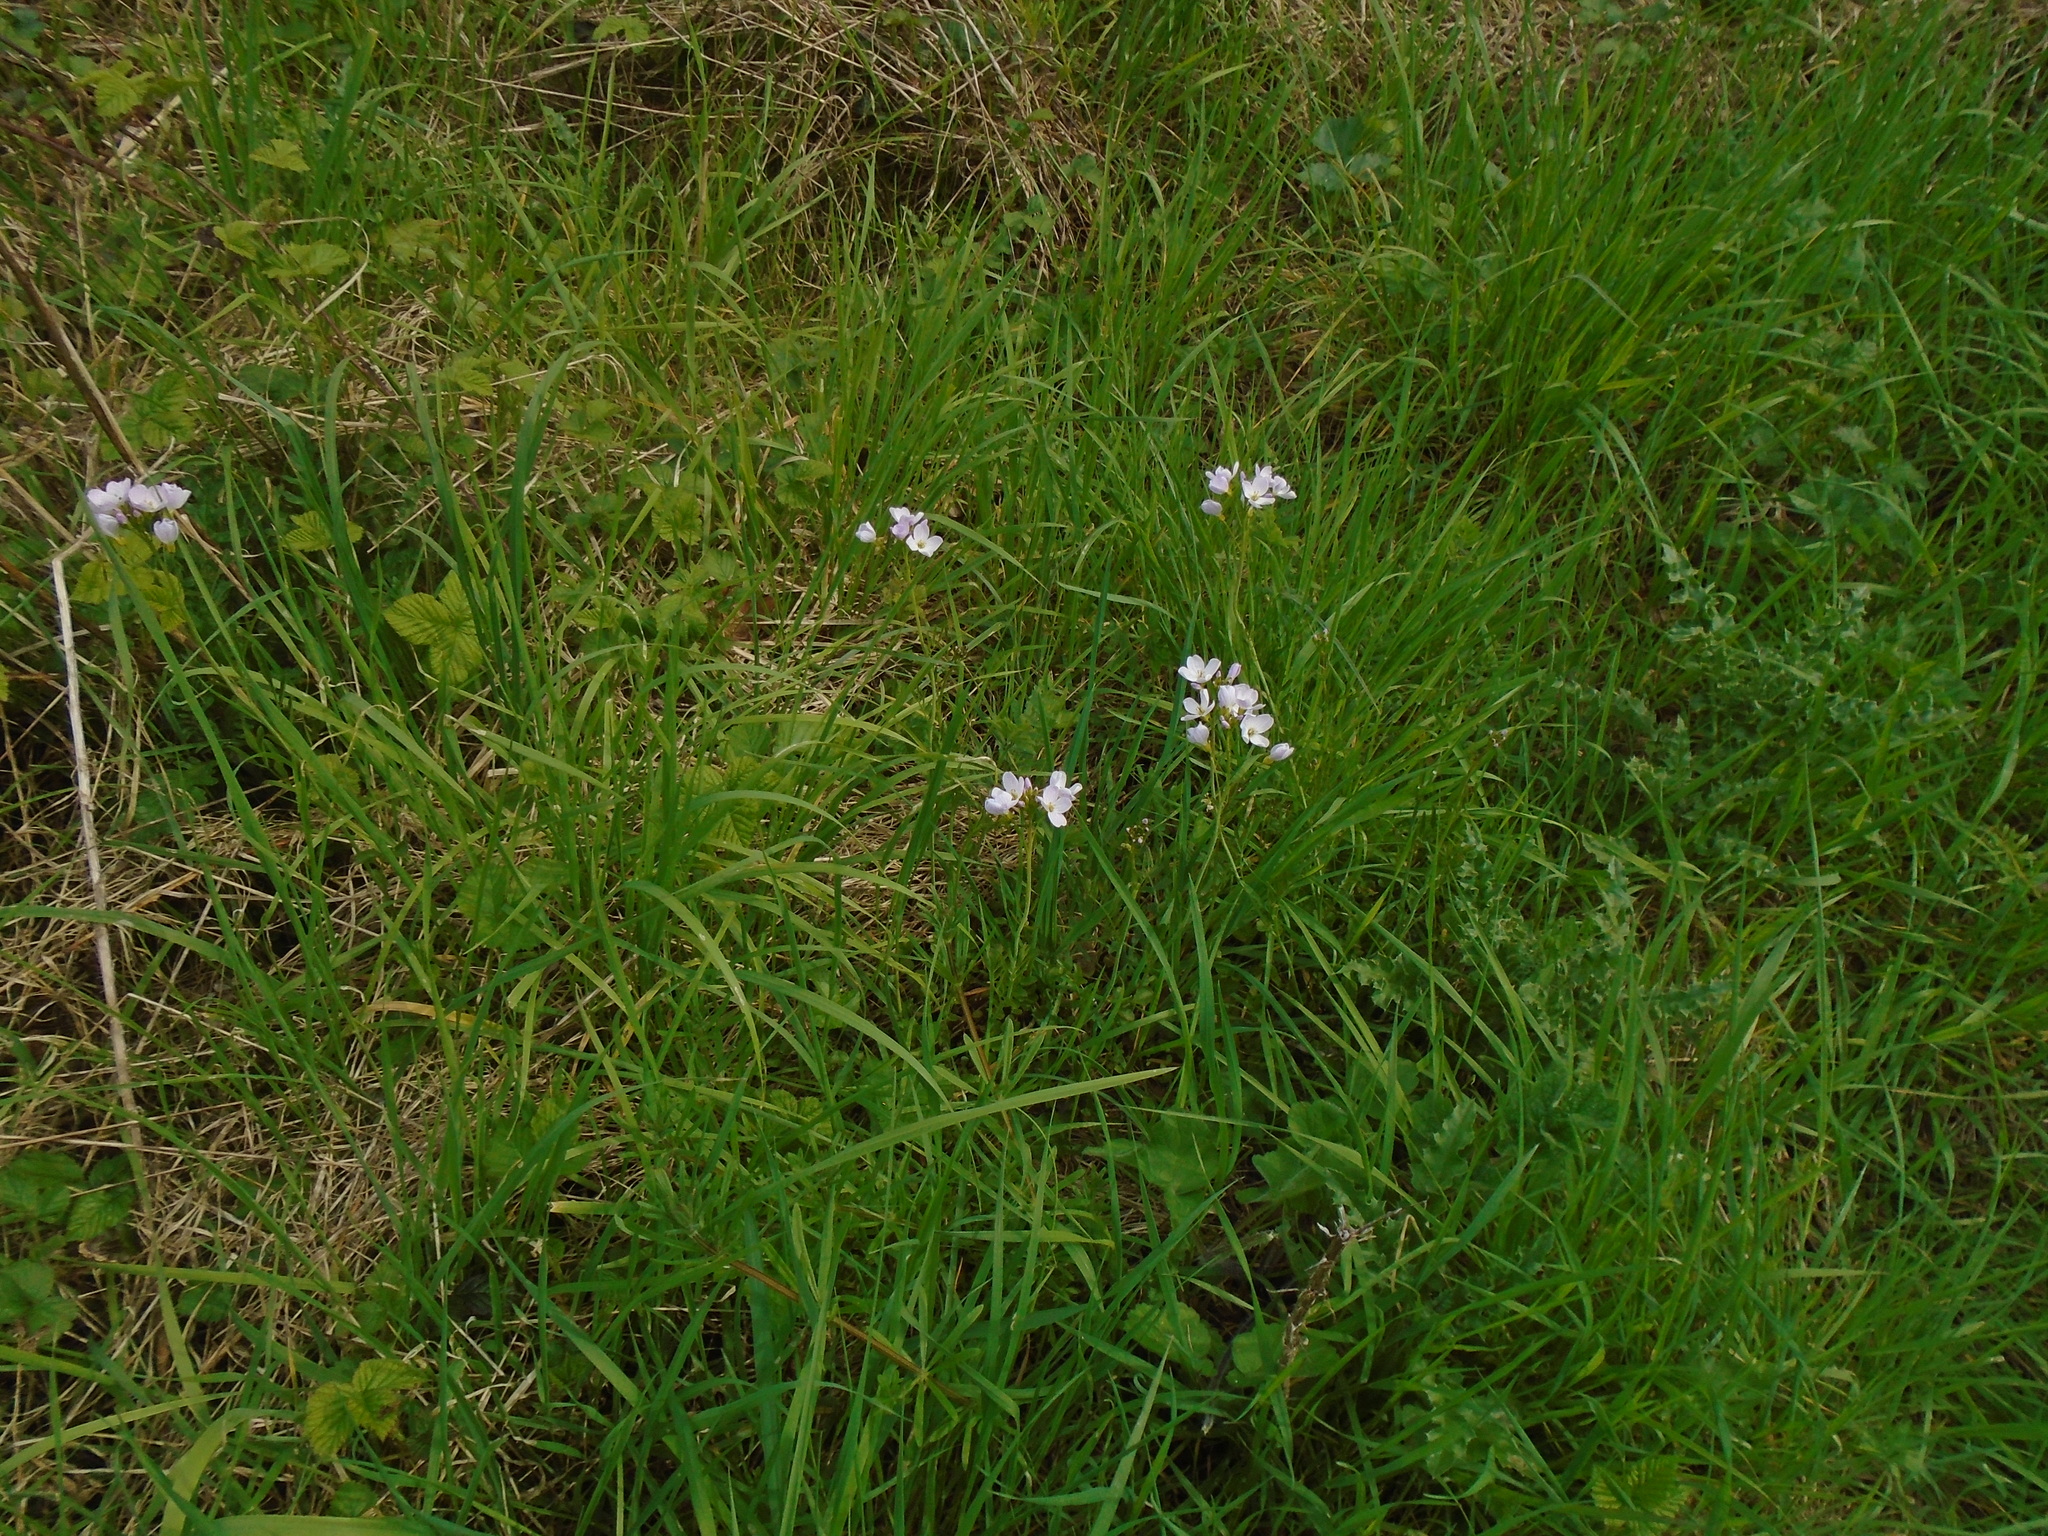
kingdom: Plantae
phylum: Tracheophyta
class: Magnoliopsida
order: Brassicales
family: Brassicaceae
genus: Cardamine
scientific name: Cardamine pratensis
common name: Cuckoo flower
